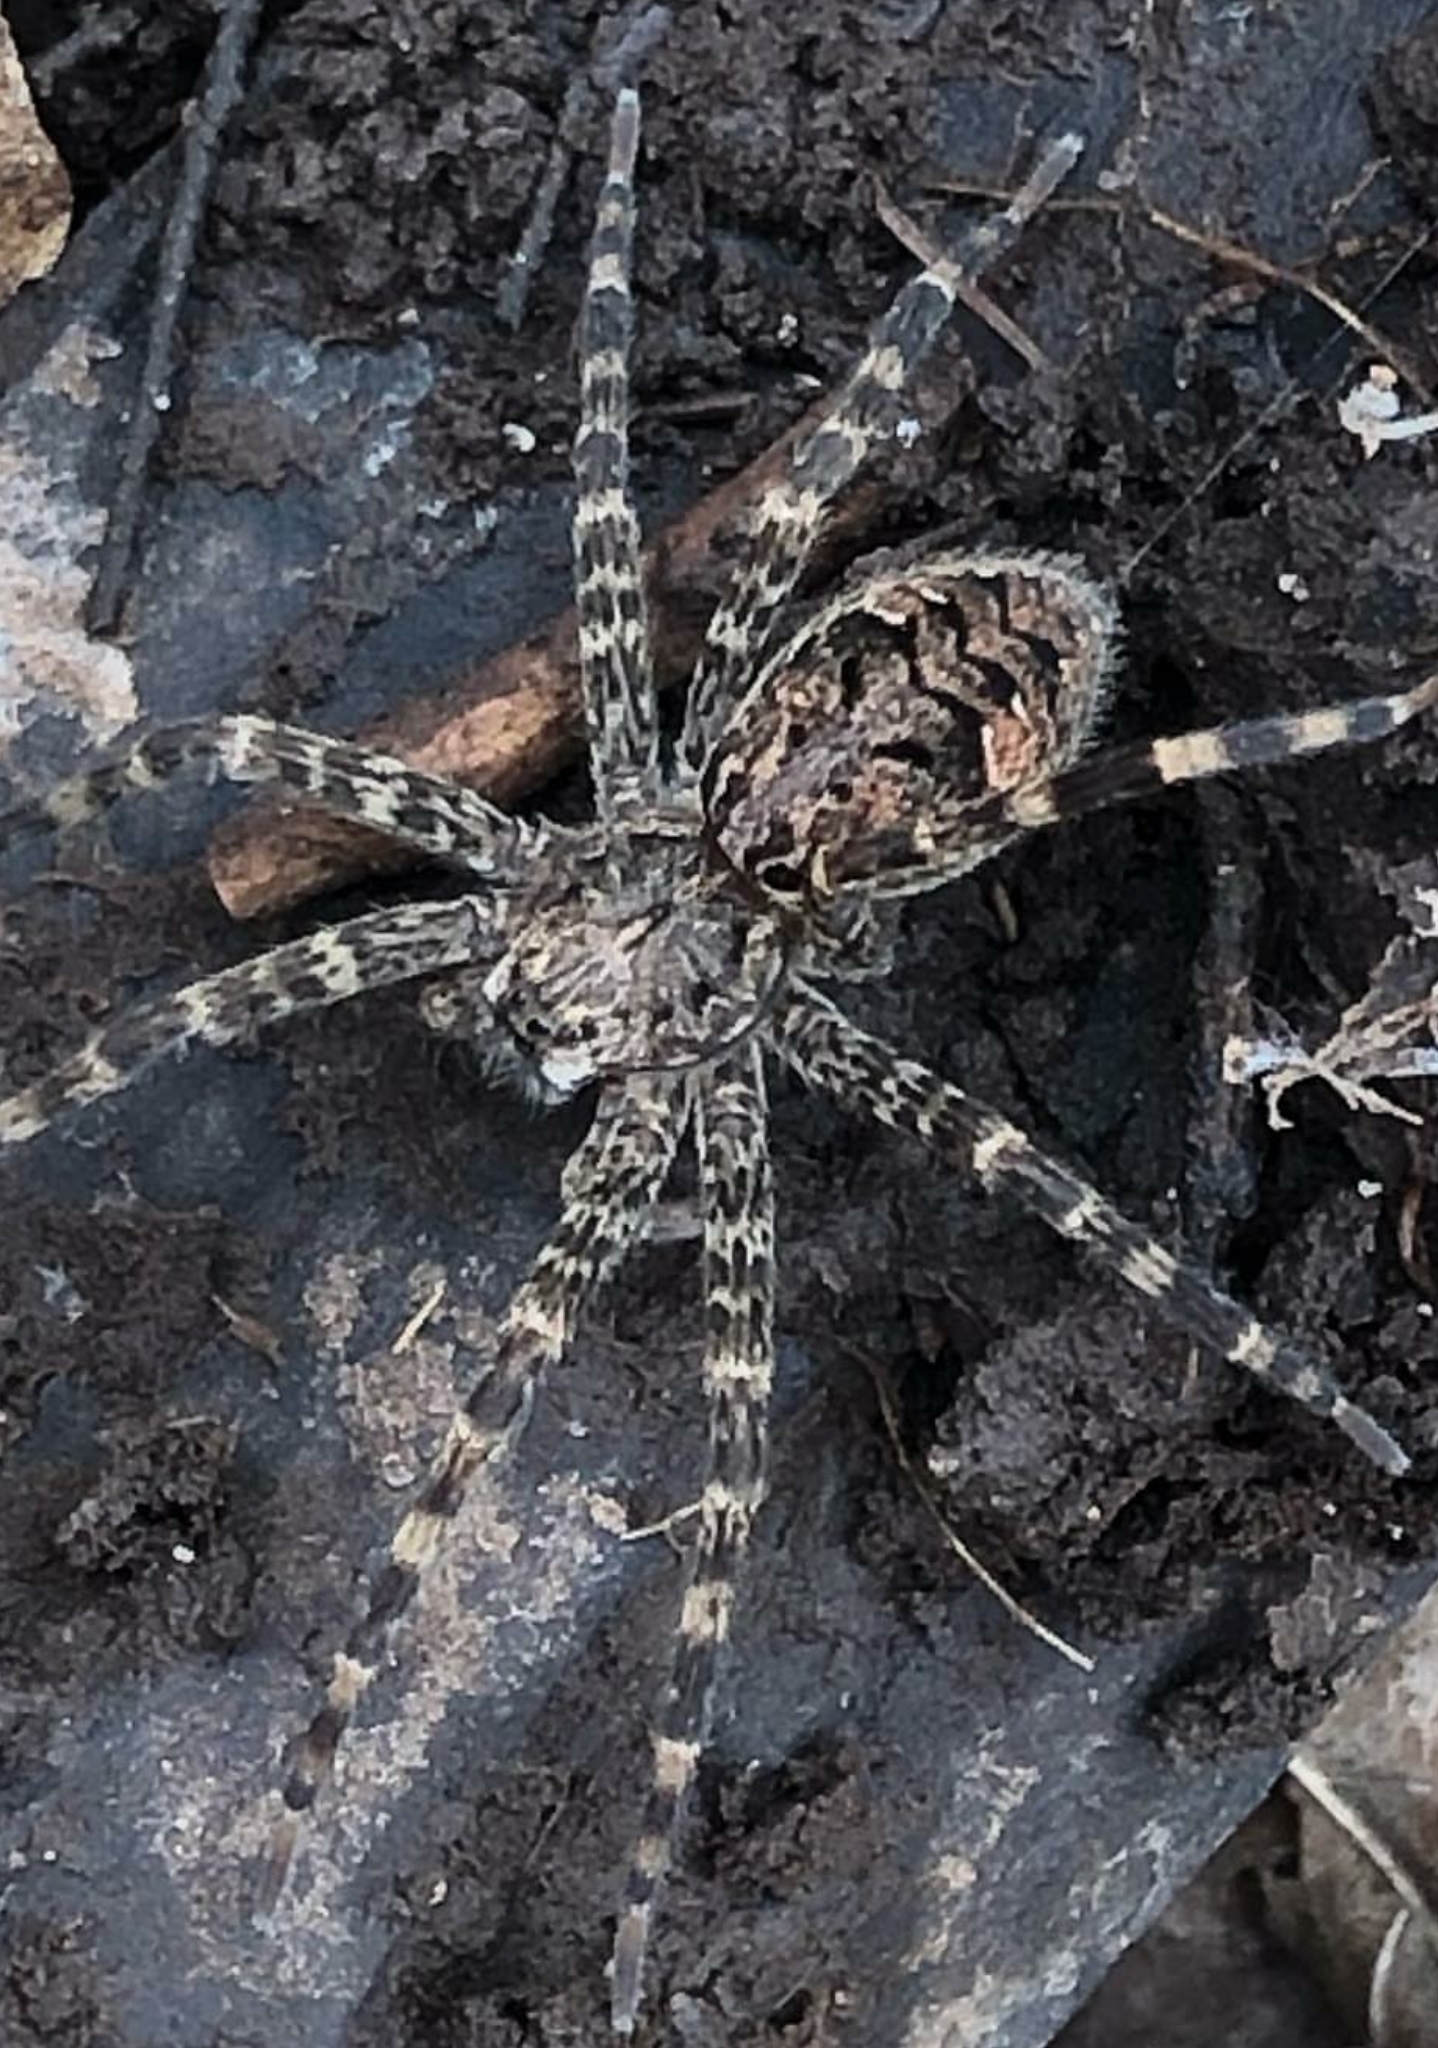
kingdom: Animalia
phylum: Arthropoda
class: Arachnida
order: Araneae
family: Pisauridae
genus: Dolomedes
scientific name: Dolomedes tenebrosus
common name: Dark fishing spider
